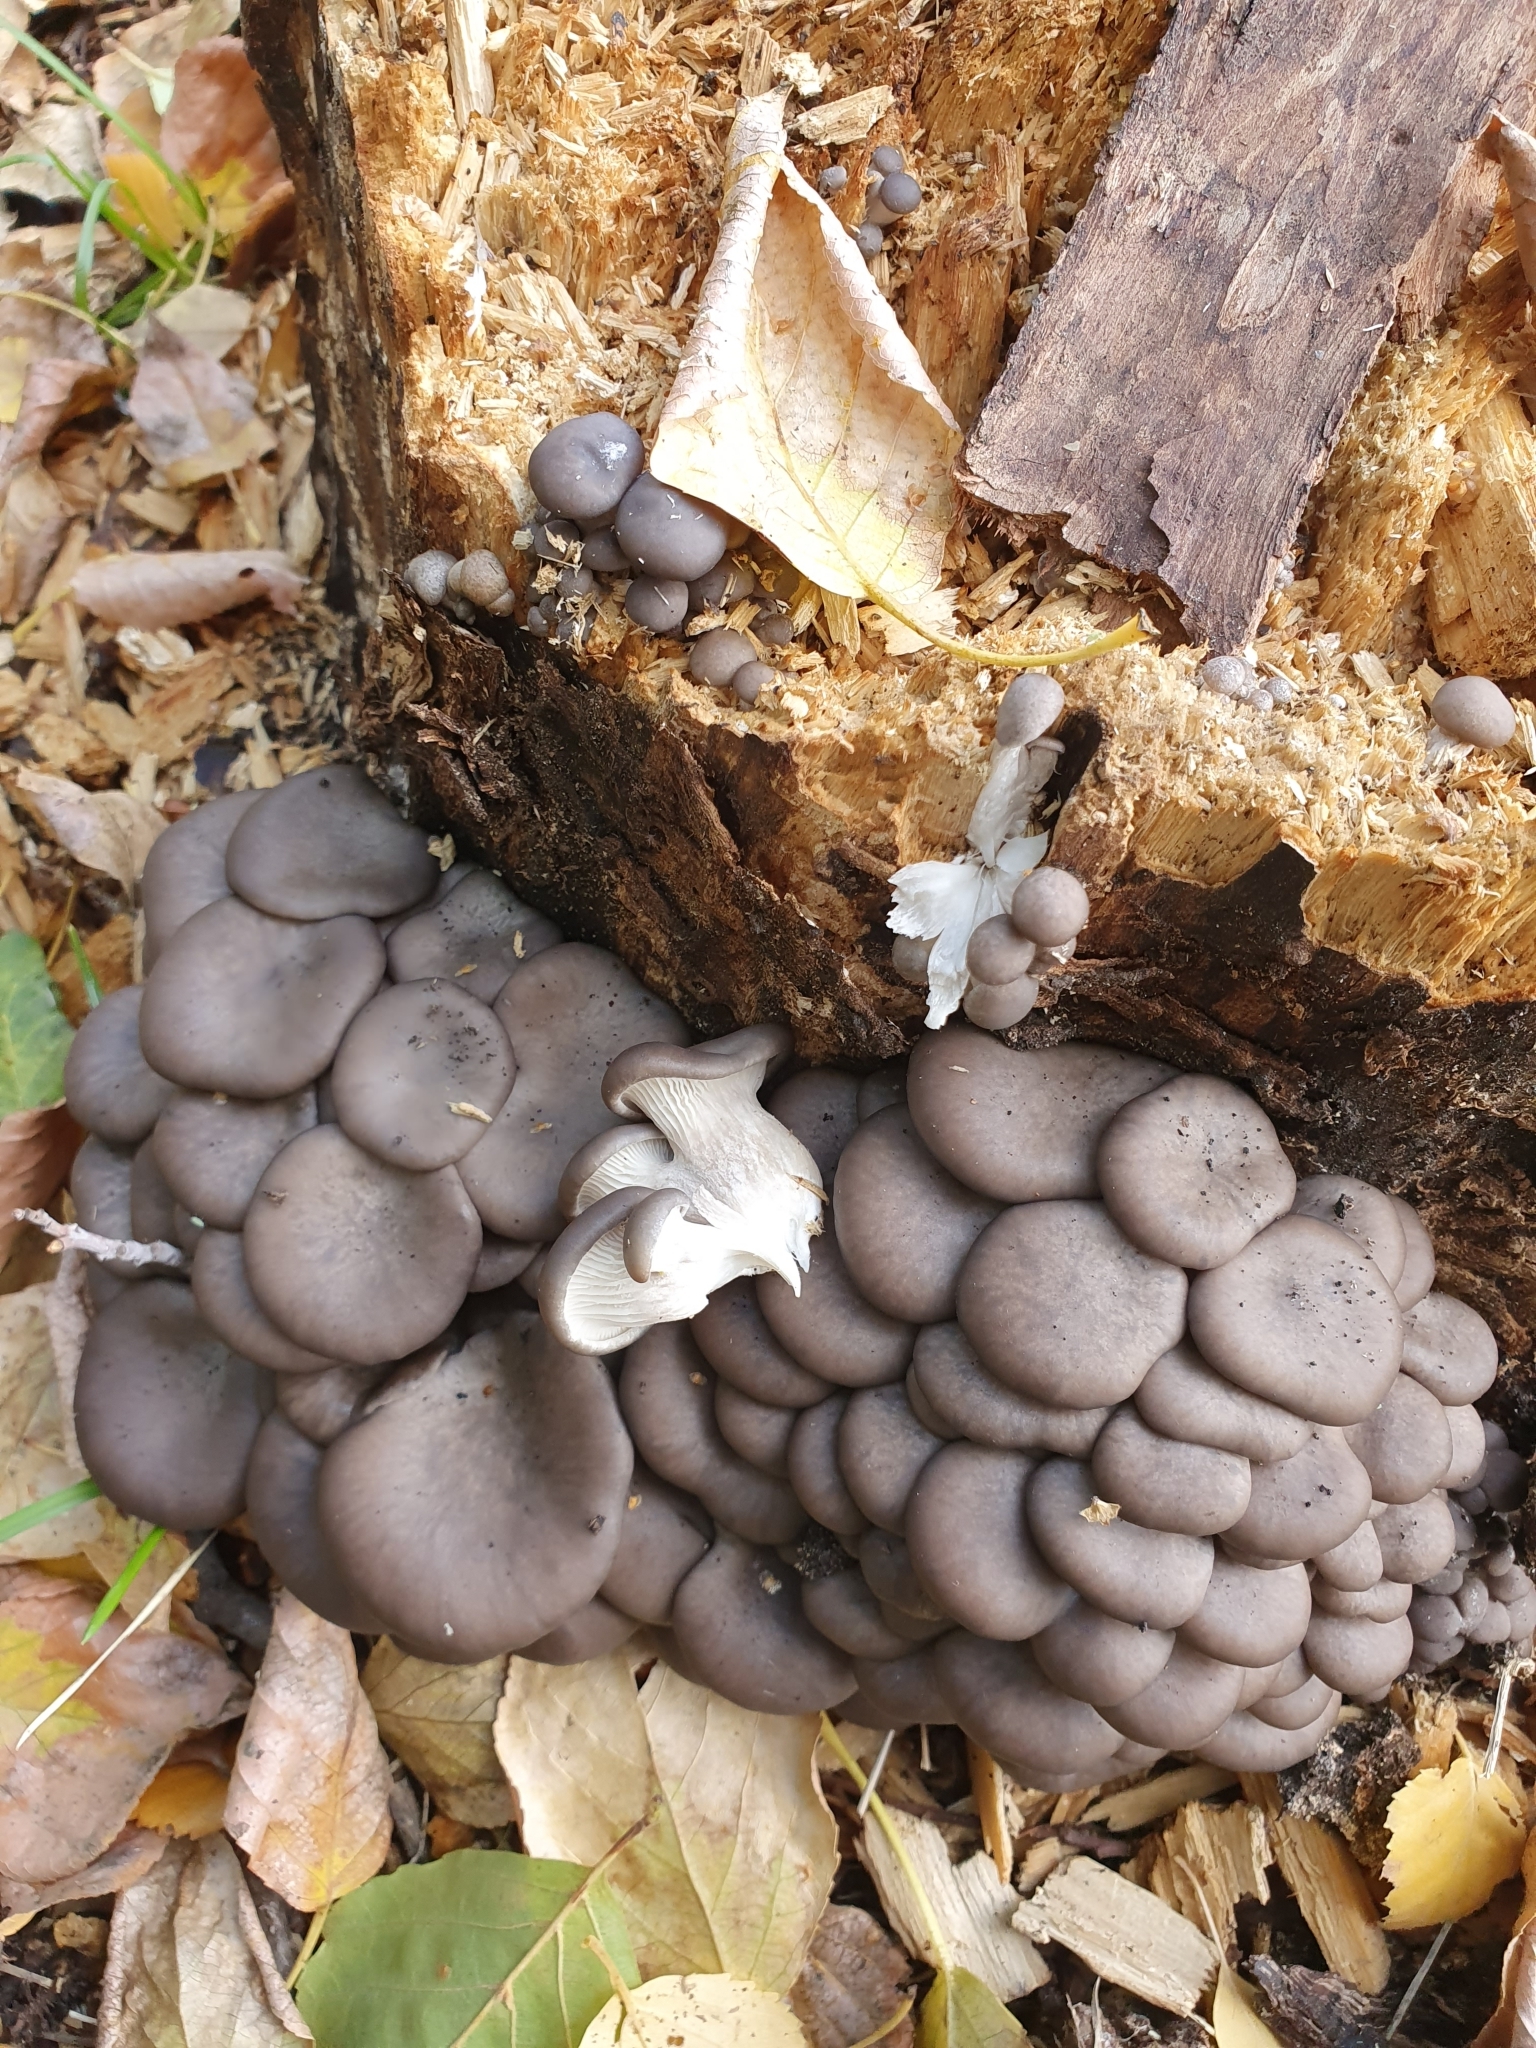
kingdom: Fungi
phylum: Basidiomycota
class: Agaricomycetes
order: Agaricales
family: Pleurotaceae
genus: Pleurotus
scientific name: Pleurotus ostreatus
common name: Oyster mushroom
